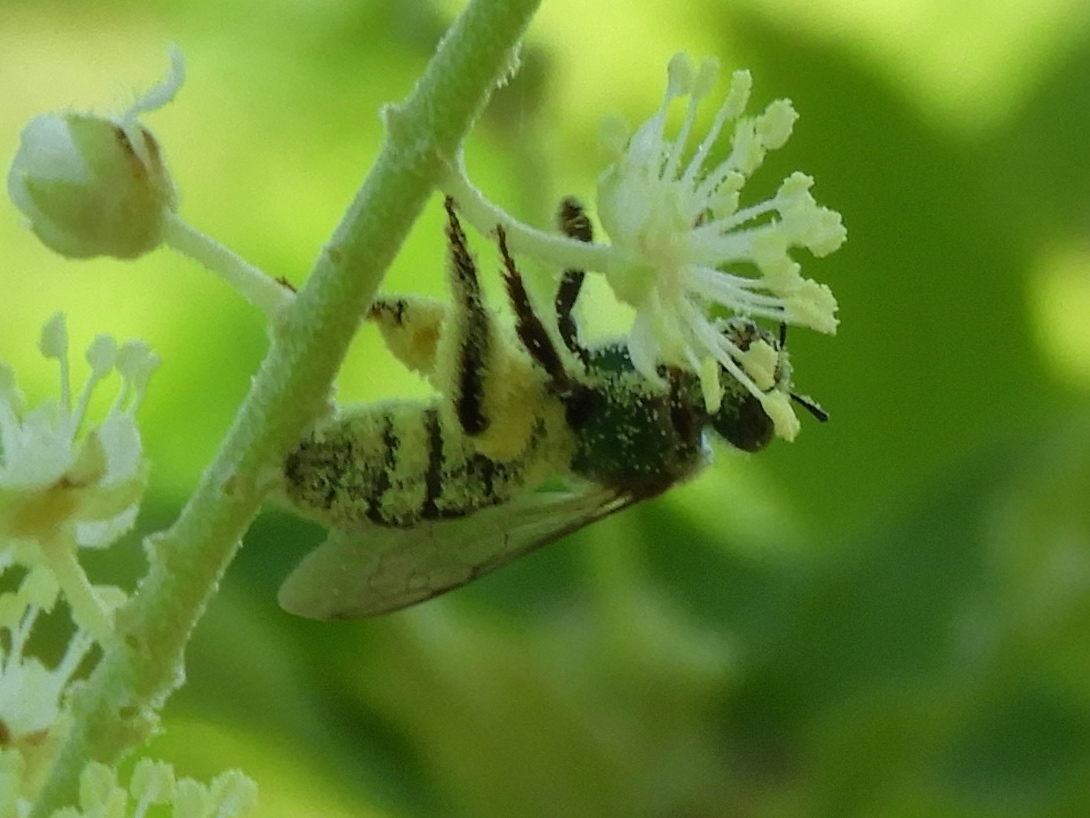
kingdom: Animalia
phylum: Arthropoda
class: Insecta
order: Hymenoptera
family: Halictidae
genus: Agapostemon
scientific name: Agapostemon
